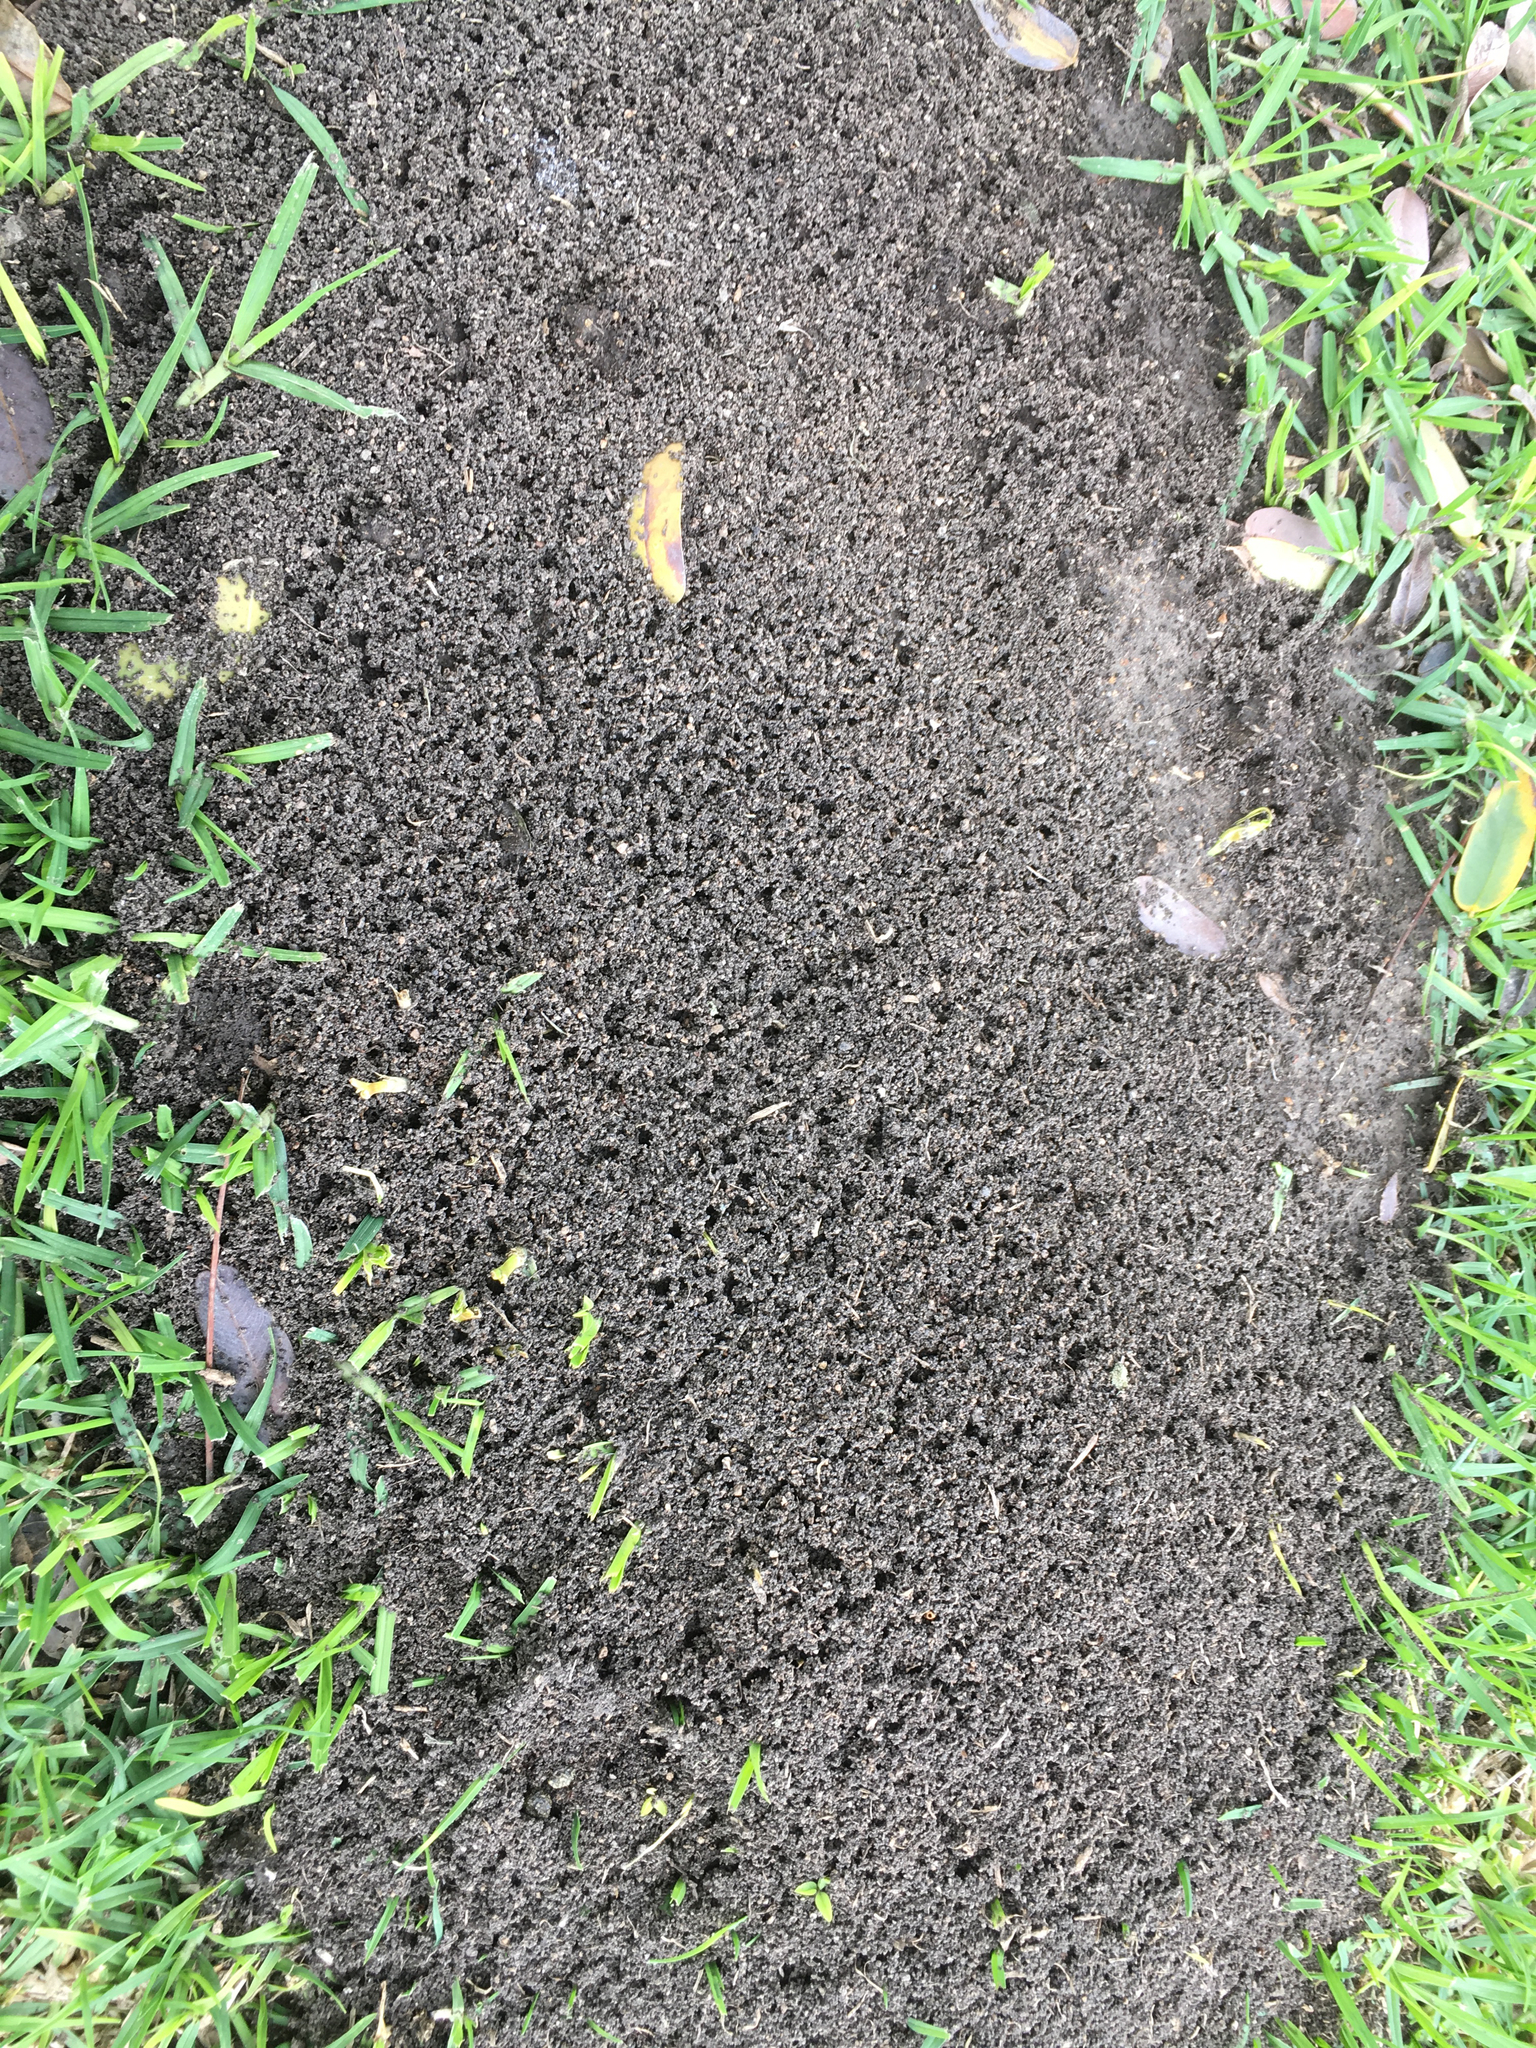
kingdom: Animalia
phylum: Arthropoda
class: Insecta
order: Hymenoptera
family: Formicidae
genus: Solenopsis
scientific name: Solenopsis invicta
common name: Red imported fire ant
